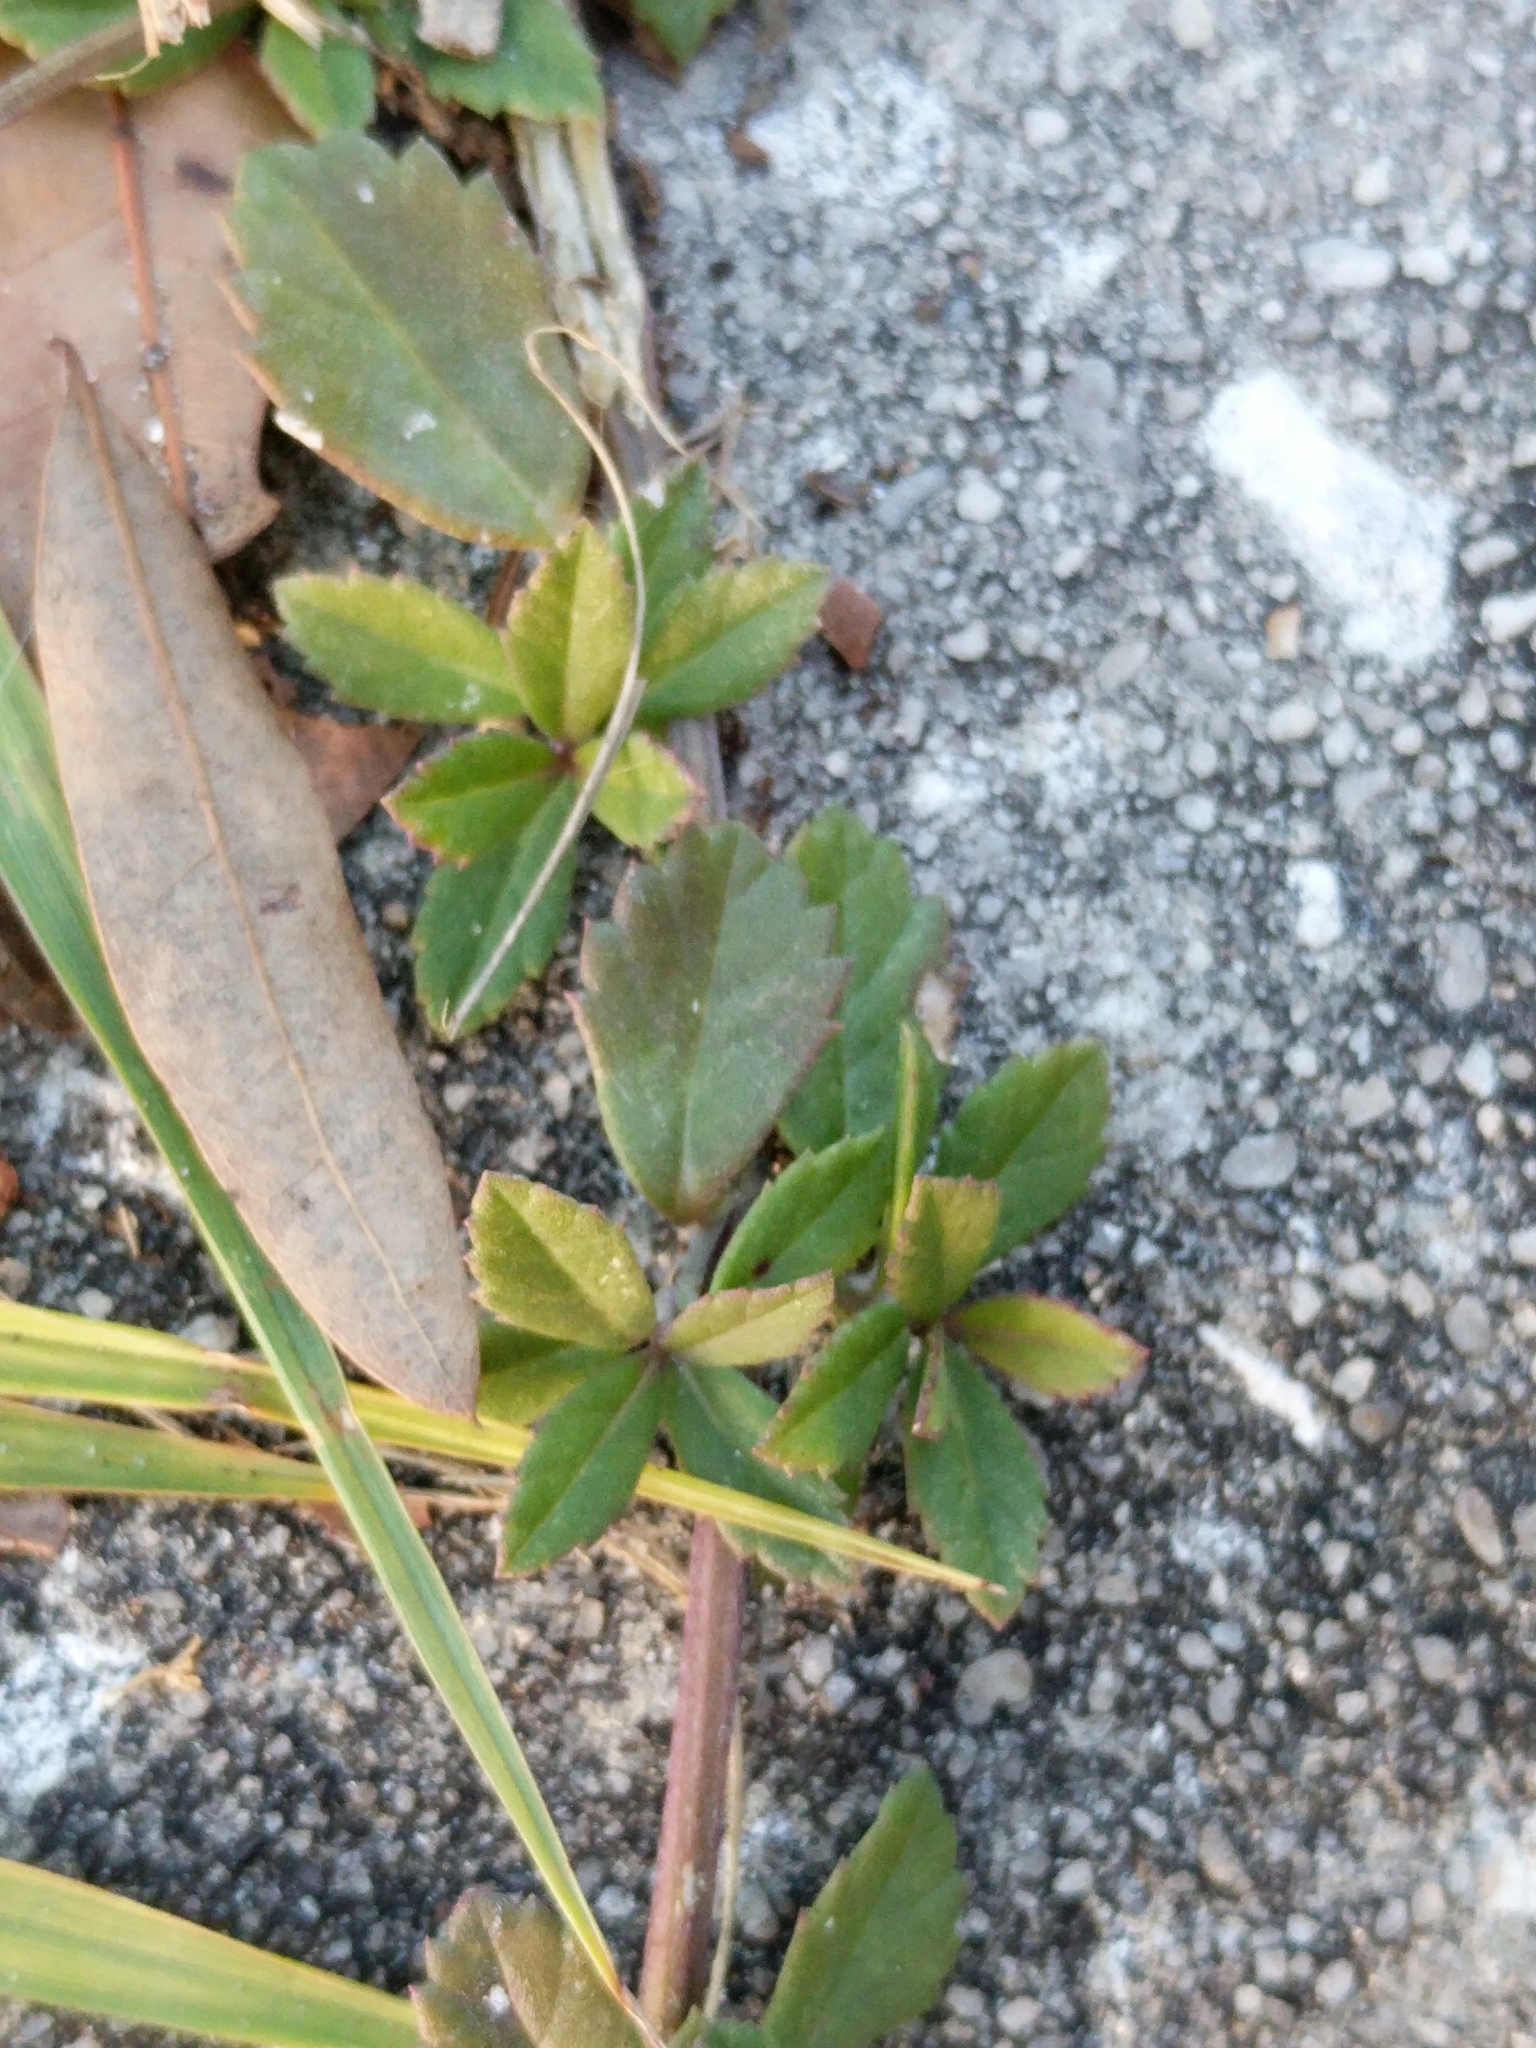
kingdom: Plantae
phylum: Tracheophyta
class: Magnoliopsida
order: Lamiales
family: Verbenaceae
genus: Phyla
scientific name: Phyla nodiflora
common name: Frogfruit
